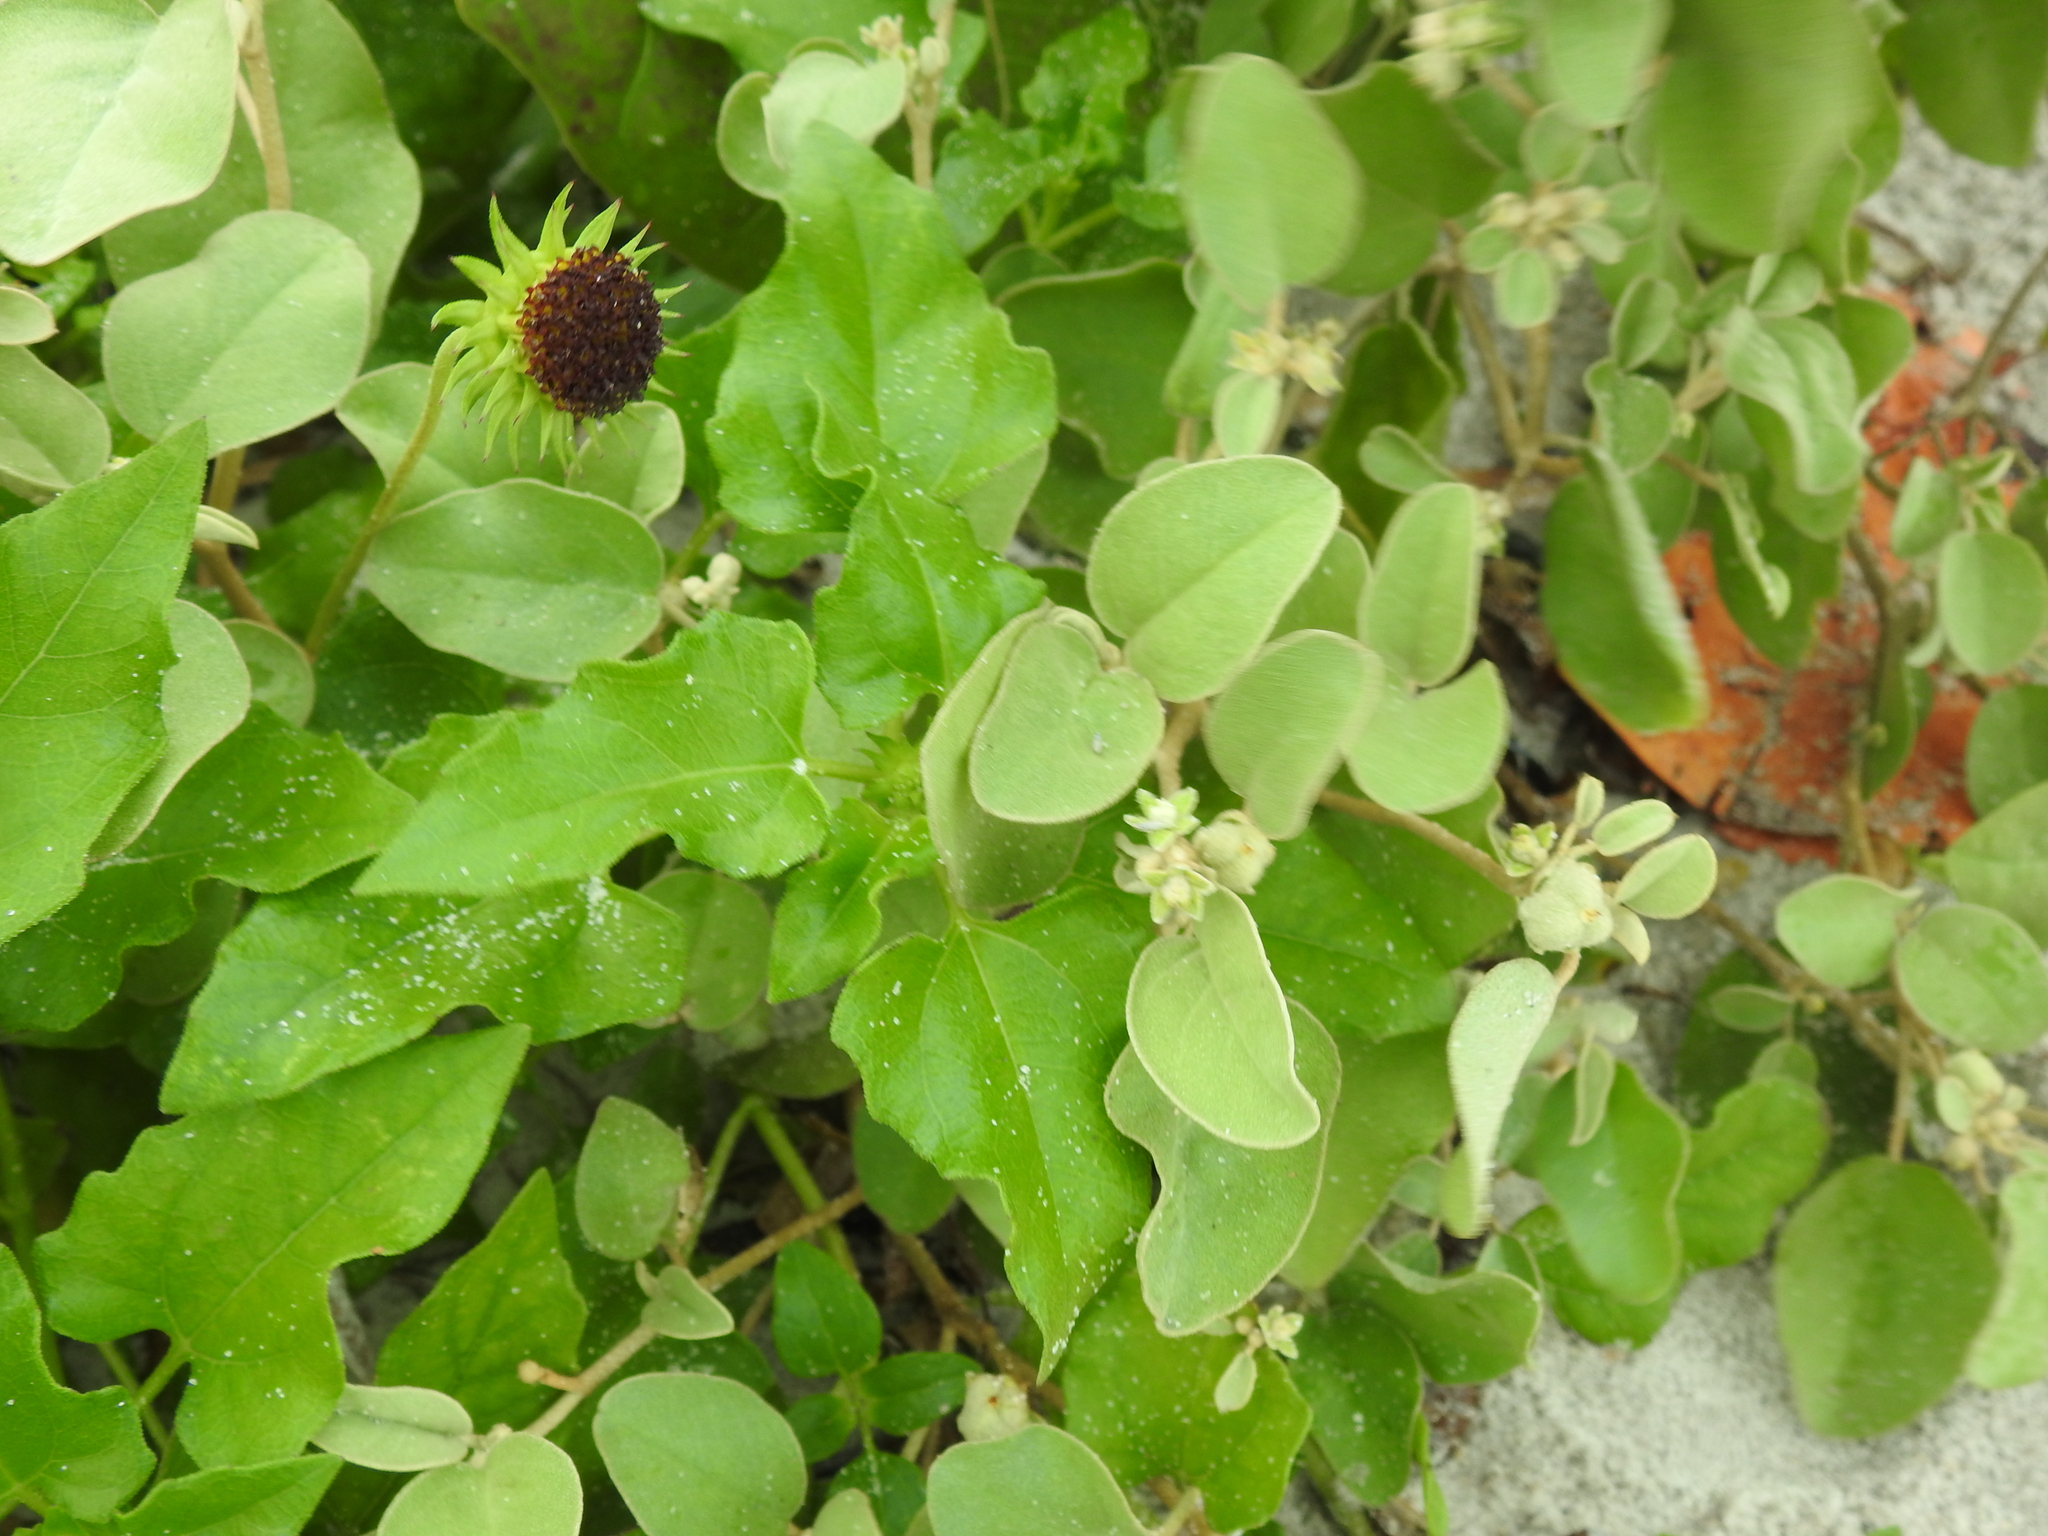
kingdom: Plantae
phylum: Tracheophyta
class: Magnoliopsida
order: Malpighiales
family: Euphorbiaceae
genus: Croton
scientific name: Croton punctatus
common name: Beach-tea
